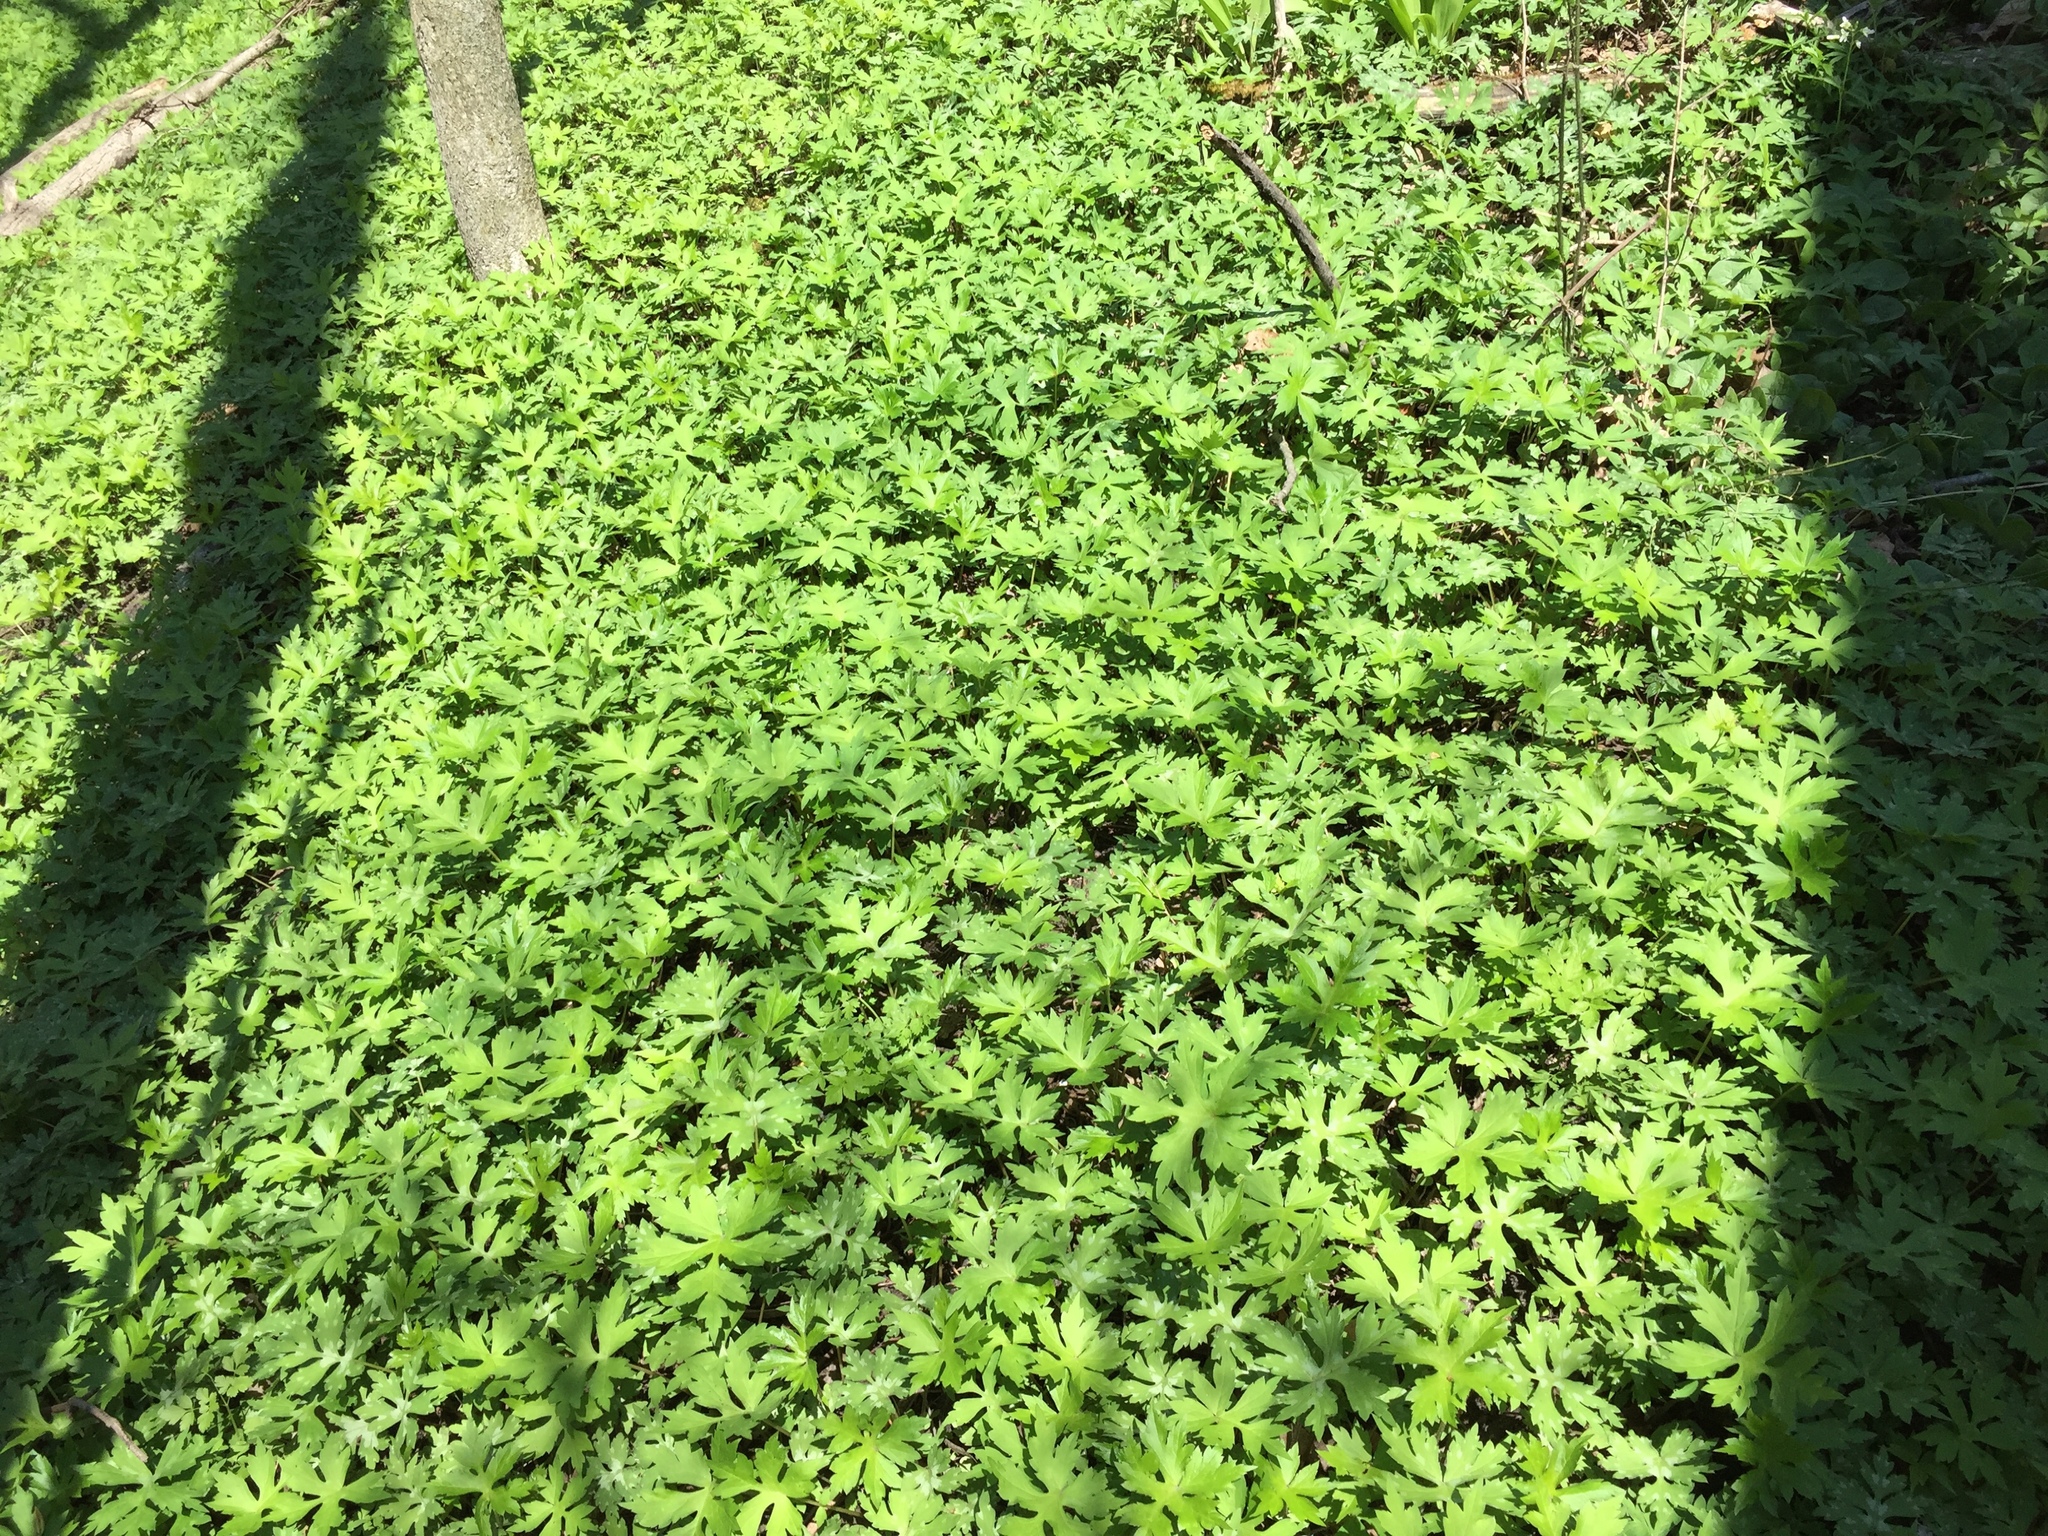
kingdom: Plantae
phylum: Tracheophyta
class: Magnoliopsida
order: Boraginales
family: Hydrophyllaceae
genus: Hydrophyllum
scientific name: Hydrophyllum virginianum
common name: Virginia waterleaf
